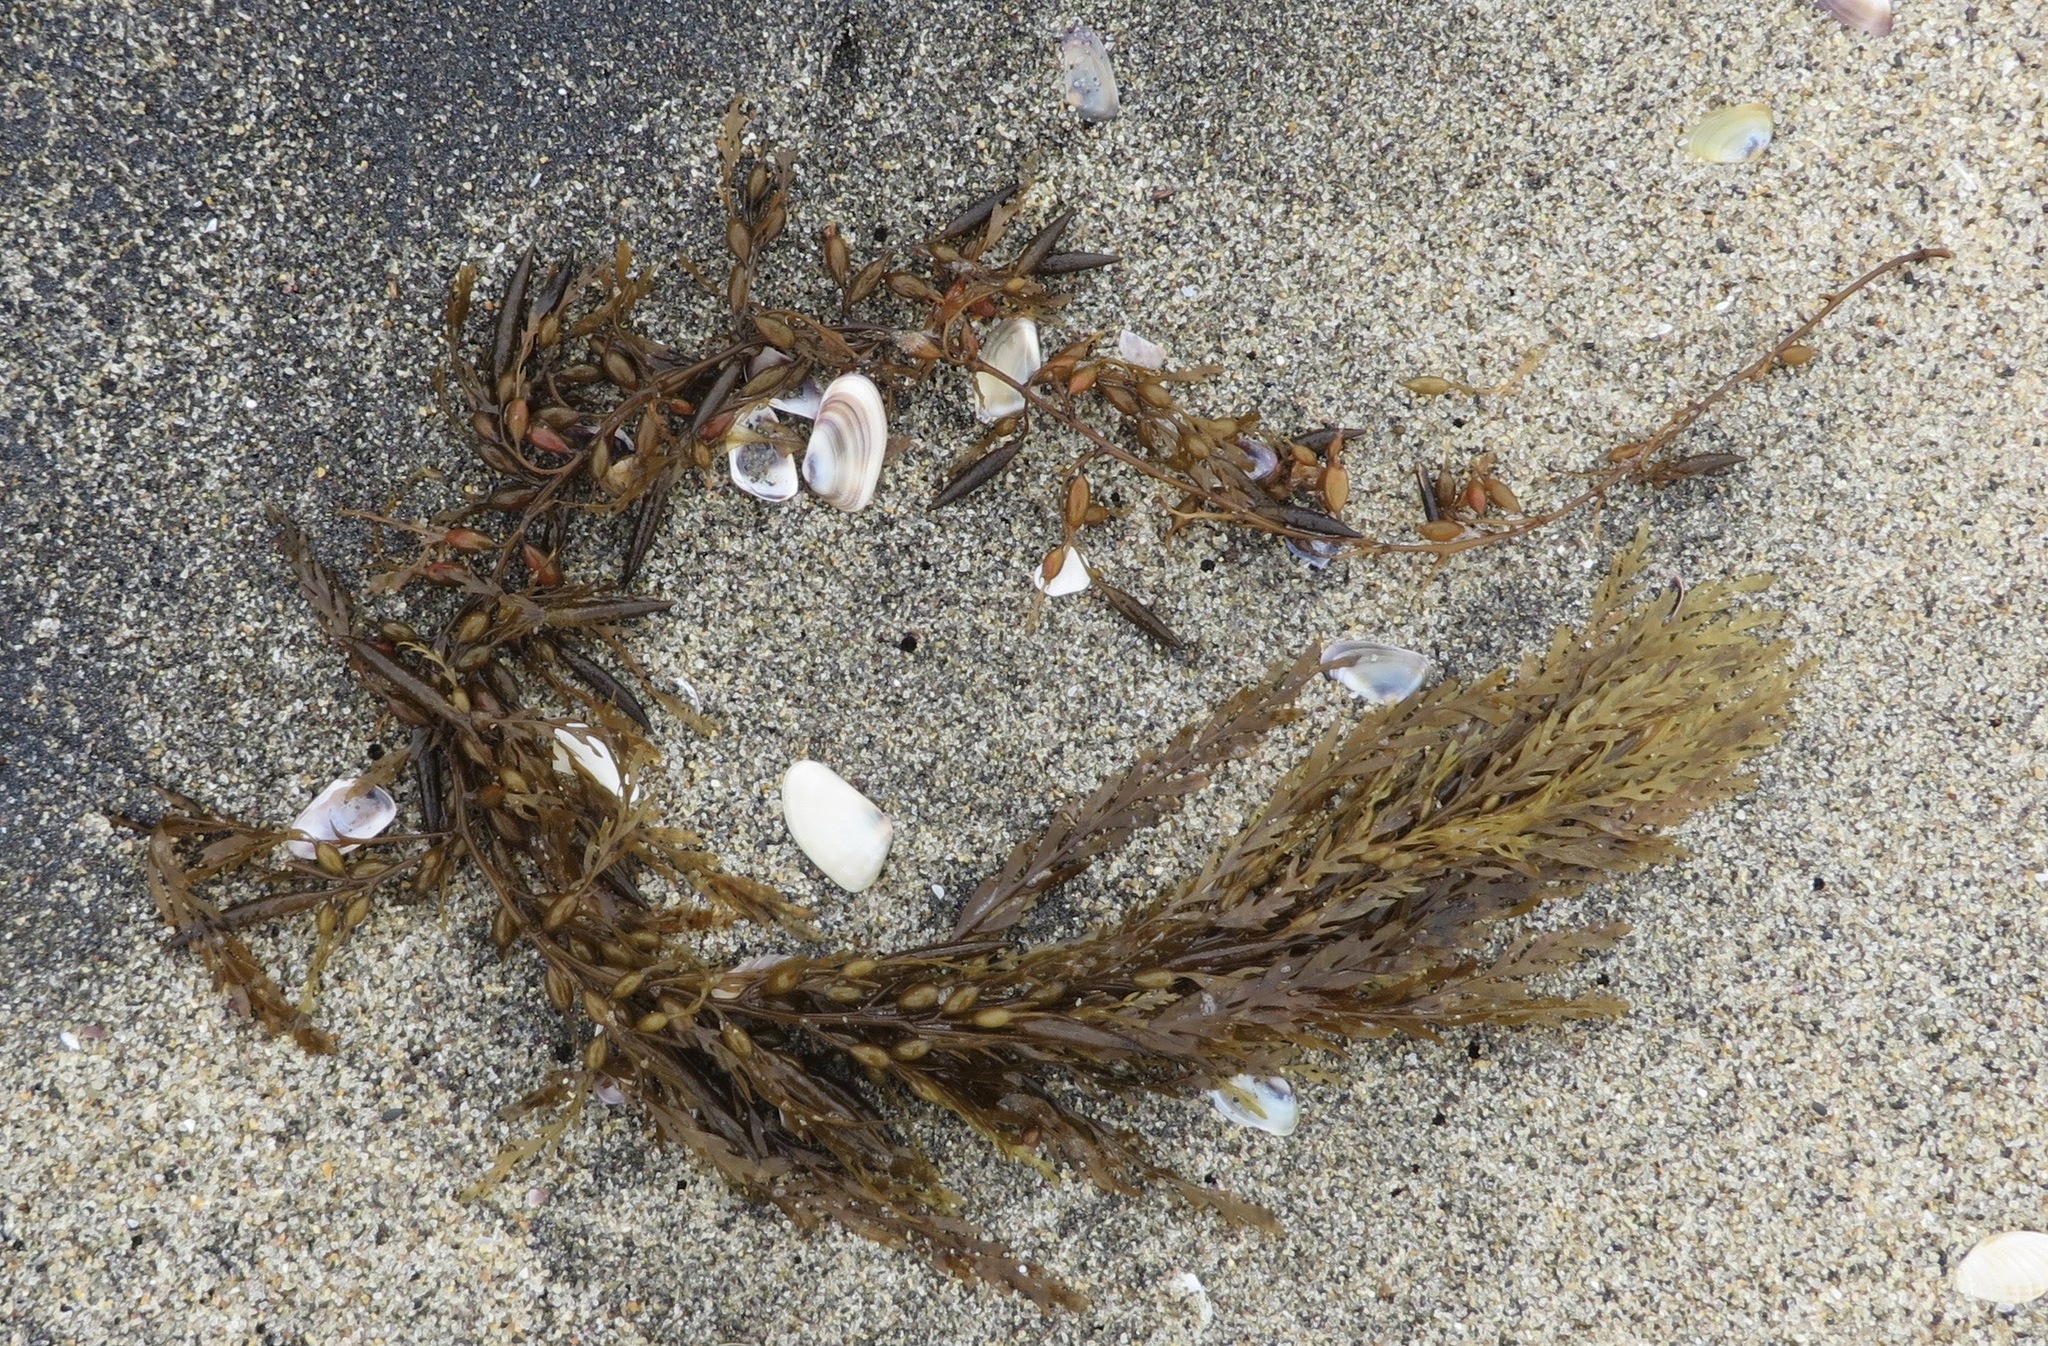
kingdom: Chromista
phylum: Ochrophyta
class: Phaeophyceae
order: Fucales
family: Sargassaceae
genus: Sargassum
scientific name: Sargassum muticum
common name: Japweed
